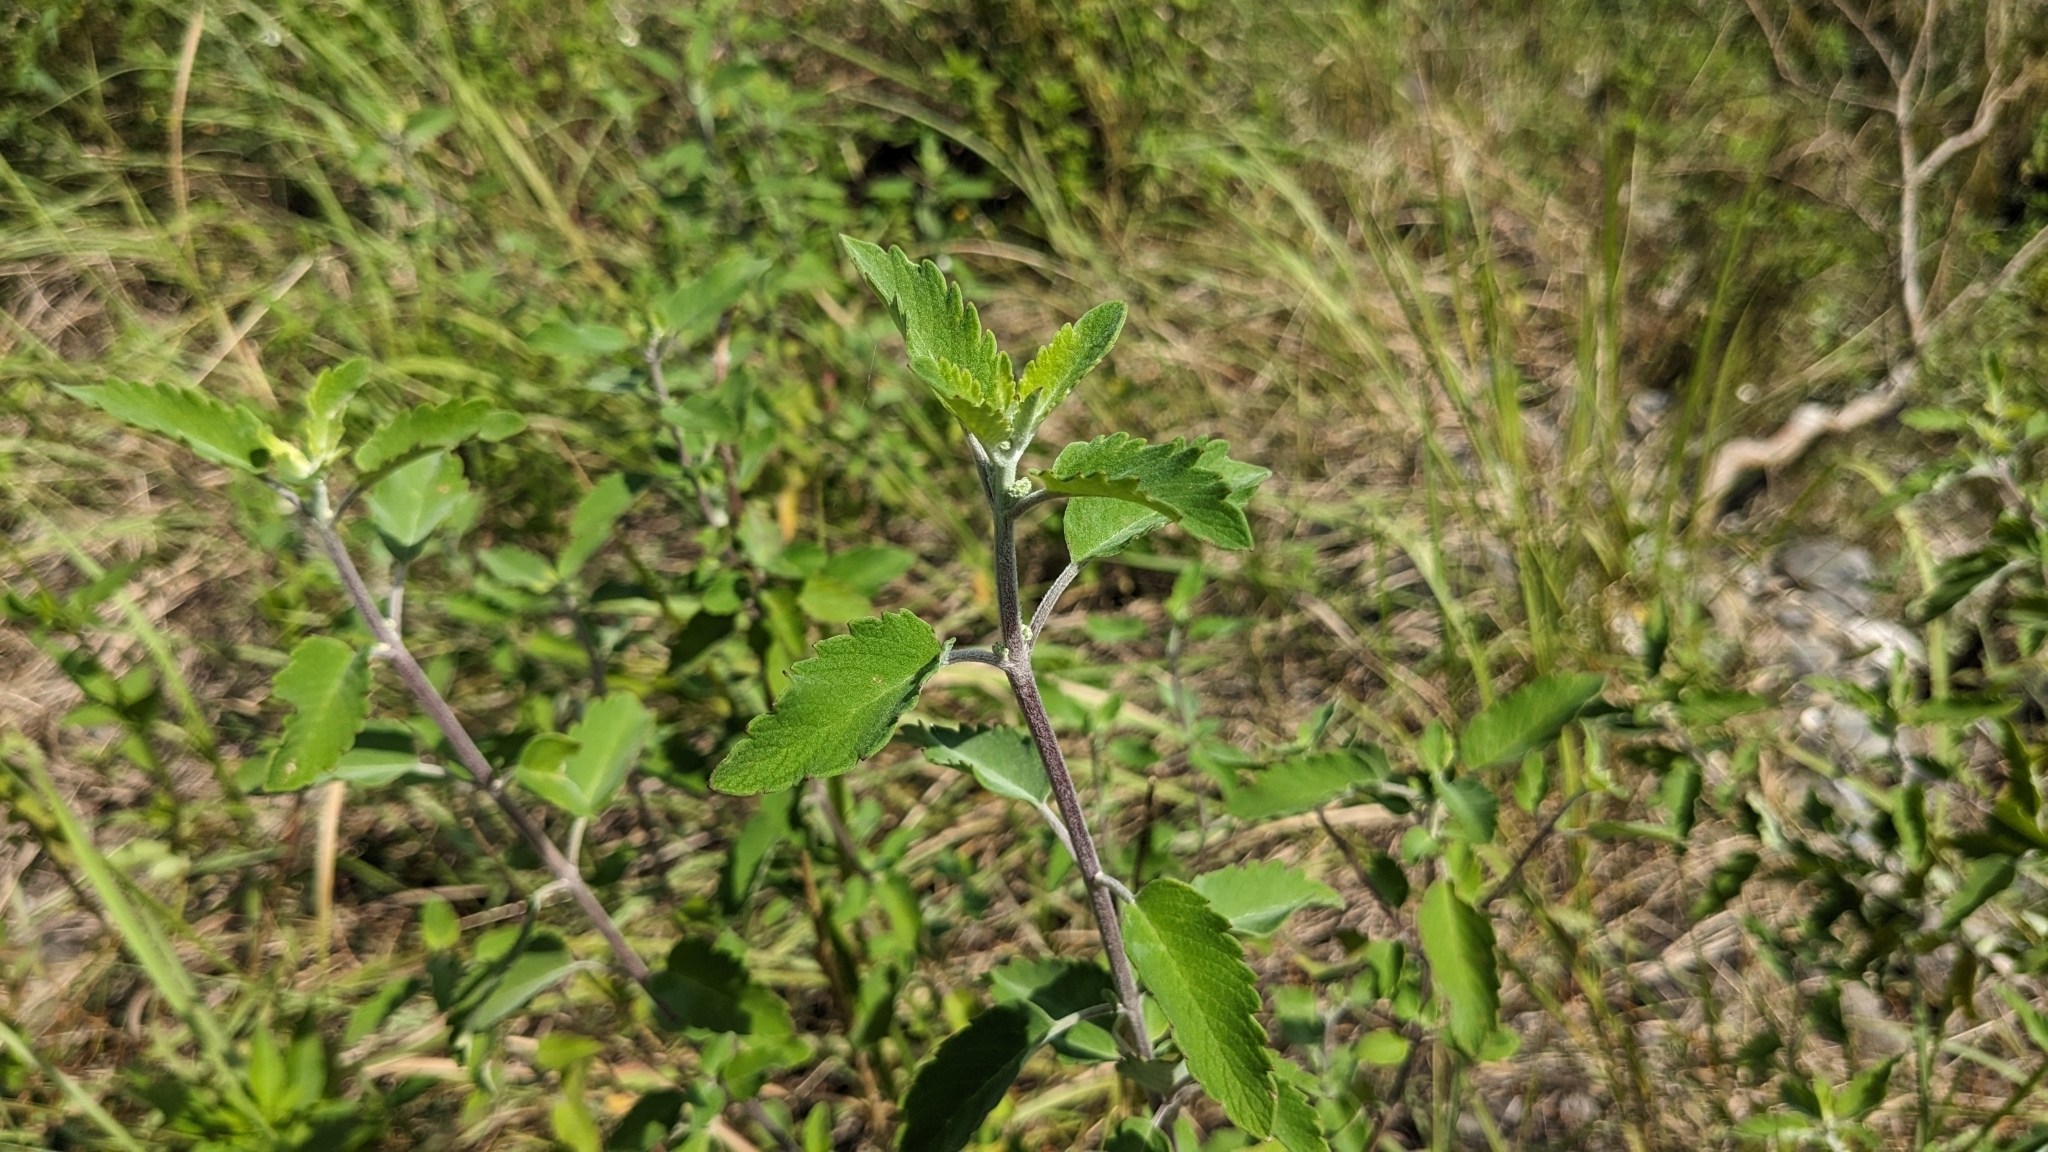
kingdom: Plantae
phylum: Tracheophyta
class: Magnoliopsida
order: Lamiales
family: Lamiaceae
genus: Caryopteris
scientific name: Caryopteris incana
